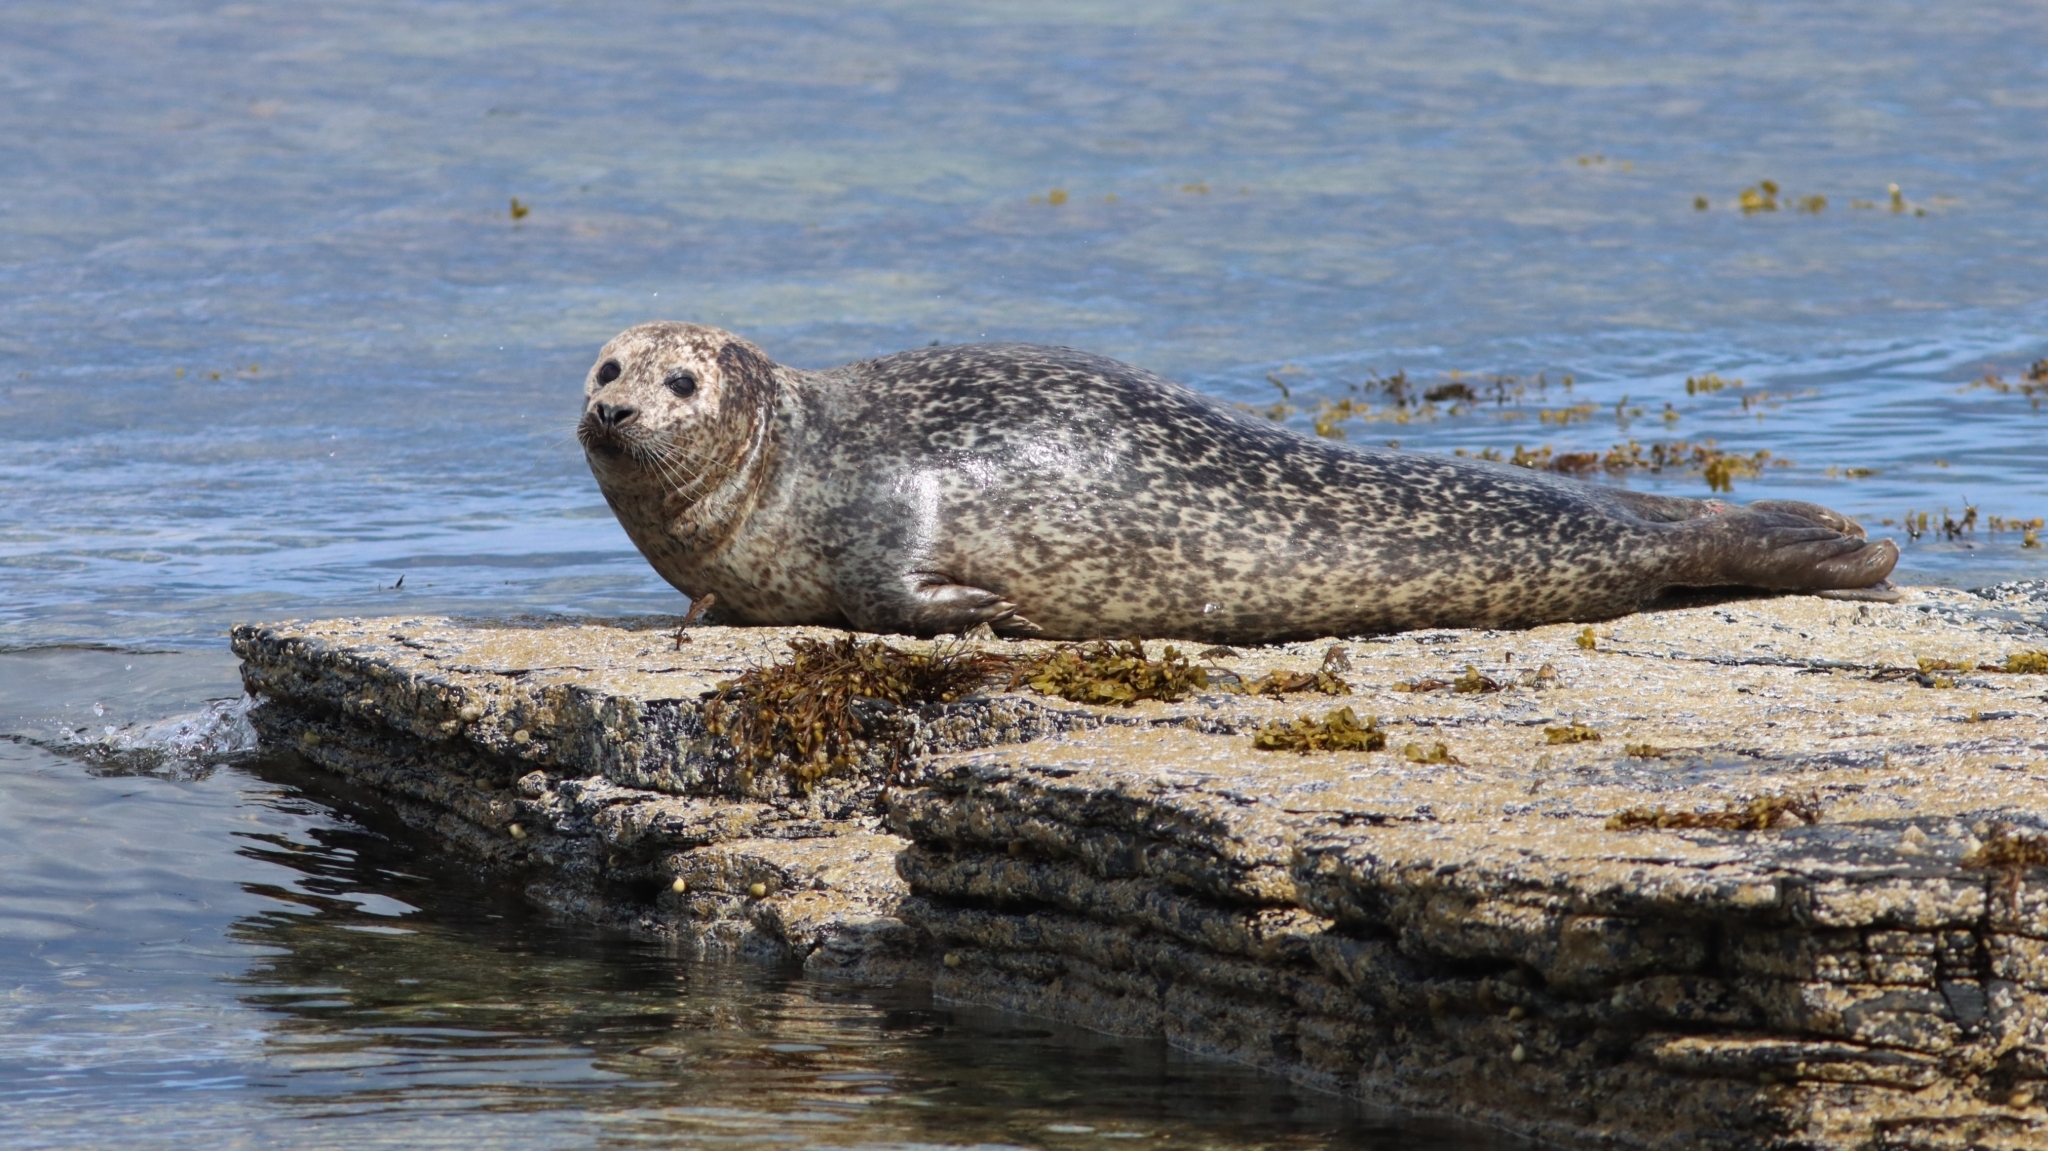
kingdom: Animalia
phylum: Chordata
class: Mammalia
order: Carnivora
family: Phocidae
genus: Phoca
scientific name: Phoca vitulina
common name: Harbor seal
